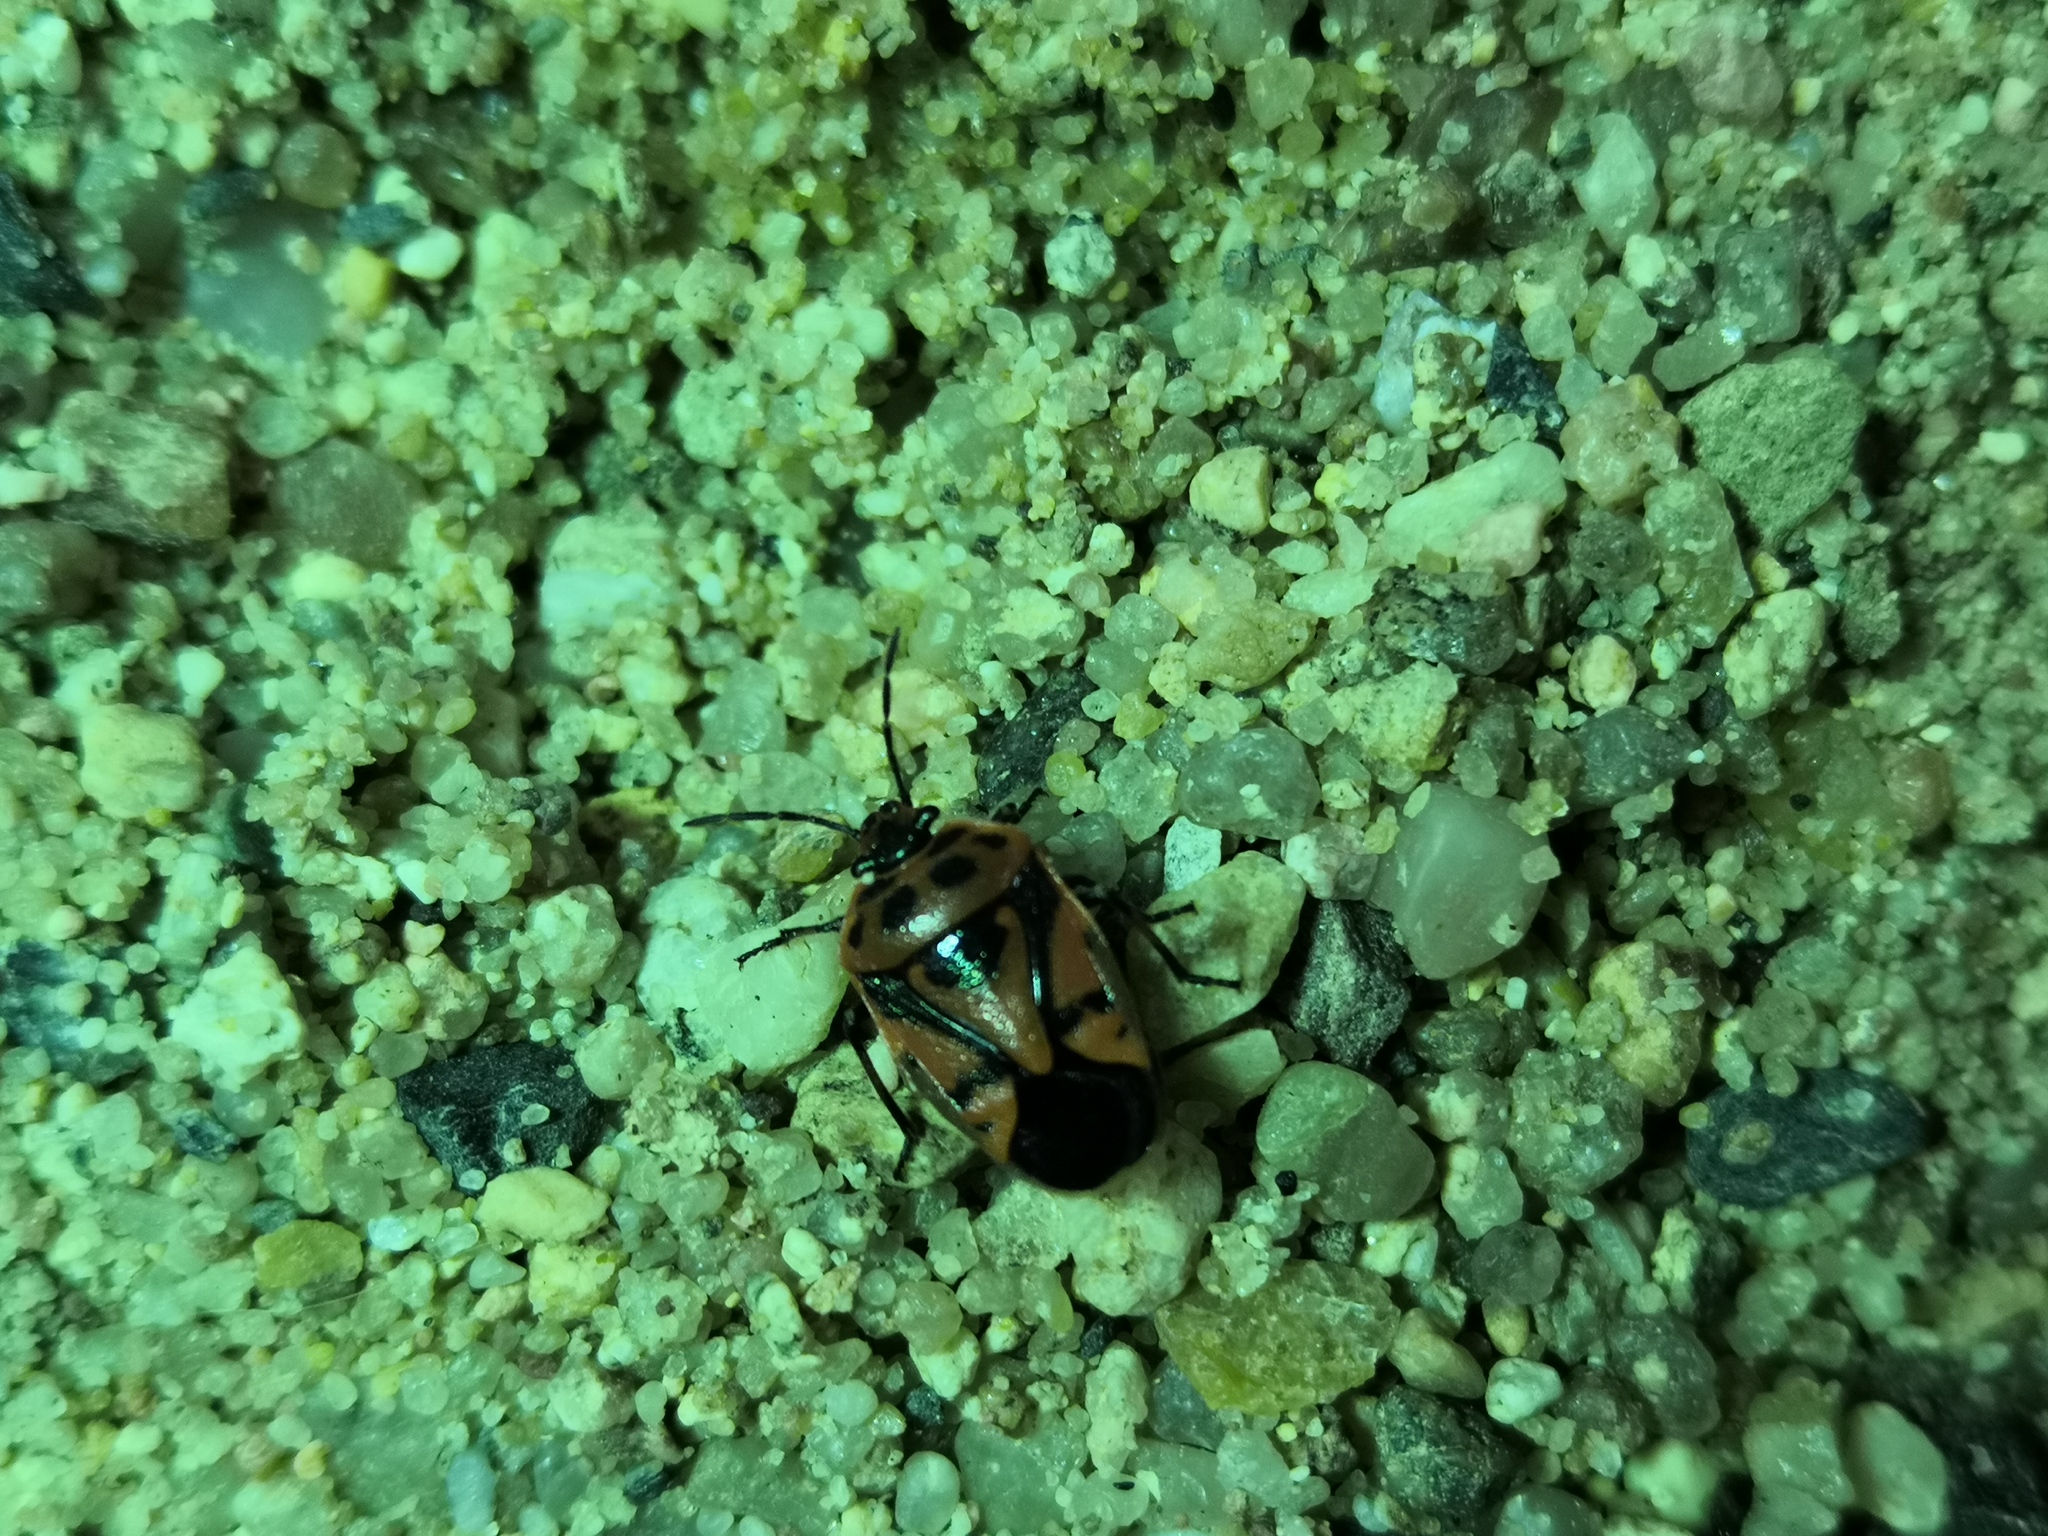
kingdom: Animalia
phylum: Arthropoda
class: Insecta
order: Hemiptera
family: Pentatomidae
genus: Eurydema
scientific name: Eurydema ornata
